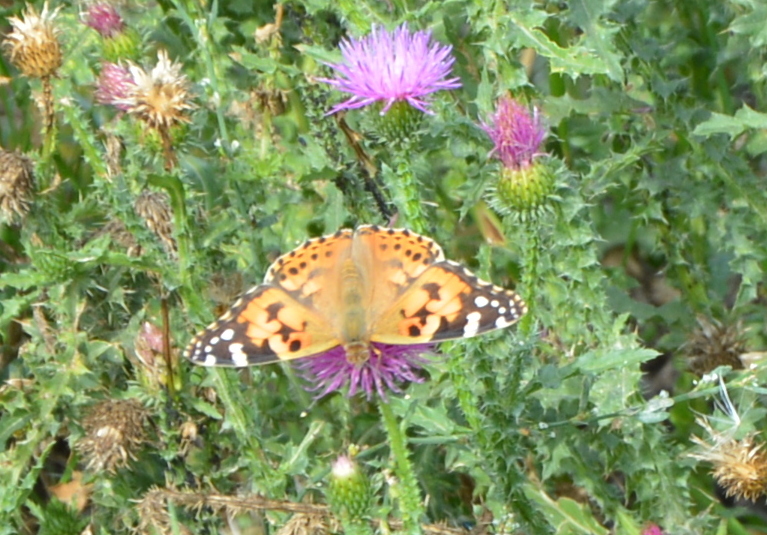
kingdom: Animalia
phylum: Arthropoda
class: Insecta
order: Lepidoptera
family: Nymphalidae
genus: Vanessa
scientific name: Vanessa cardui
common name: Painted lady
